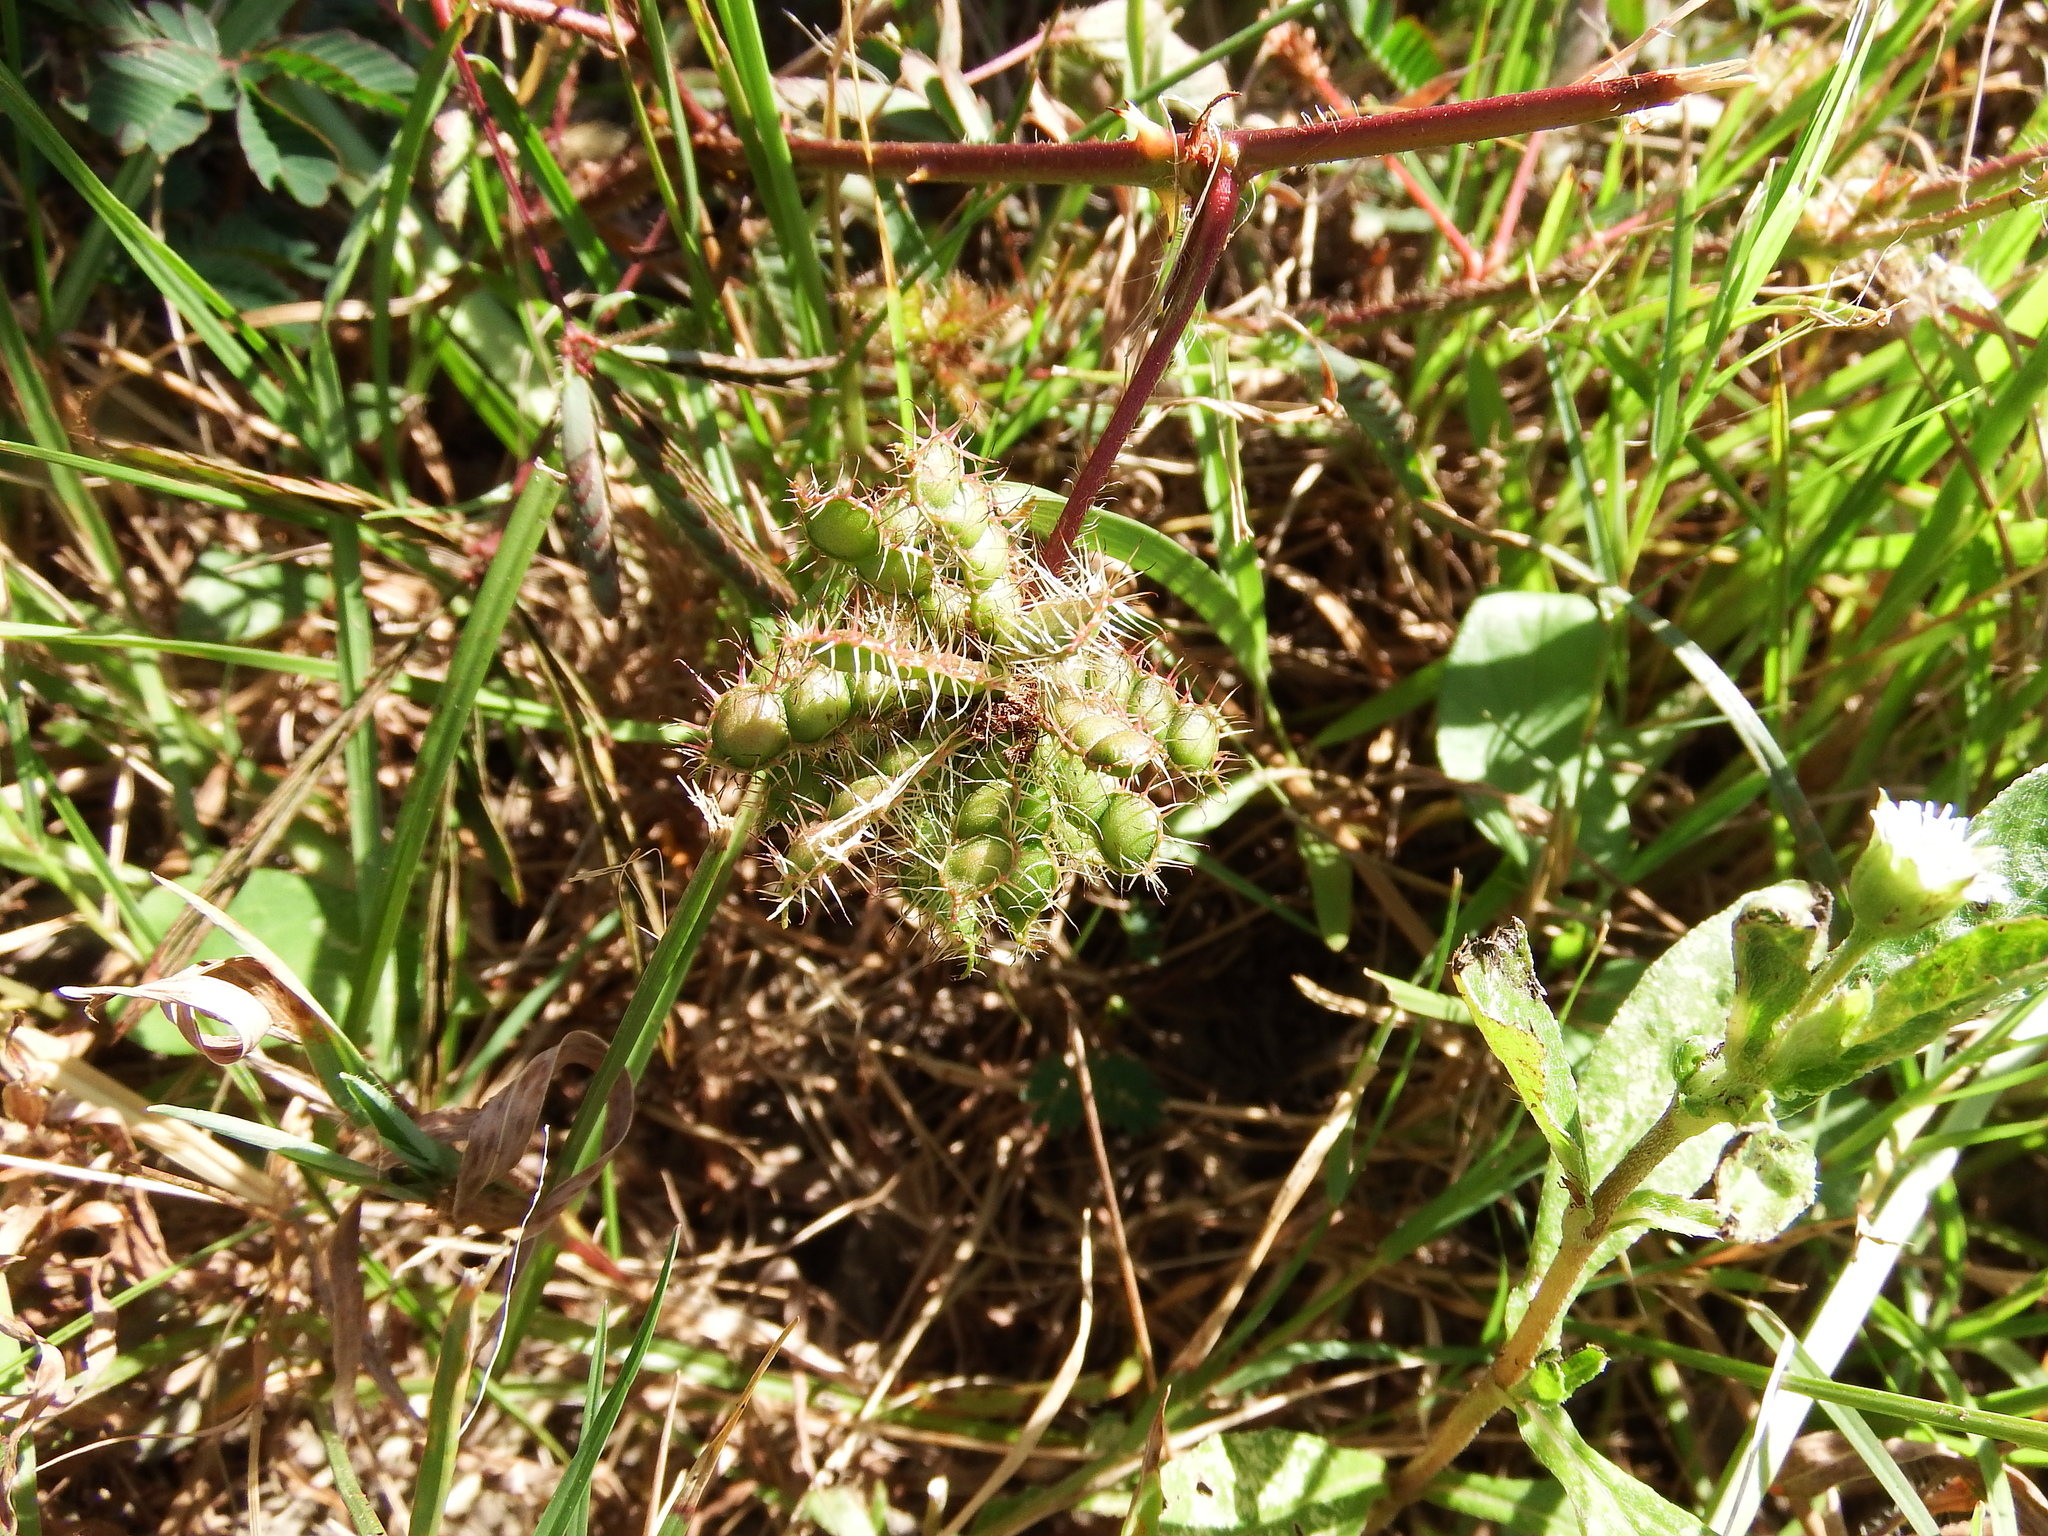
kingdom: Plantae
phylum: Tracheophyta
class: Magnoliopsida
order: Fabales
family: Fabaceae
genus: Mimosa
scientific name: Mimosa pudica
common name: Sensitive plant
